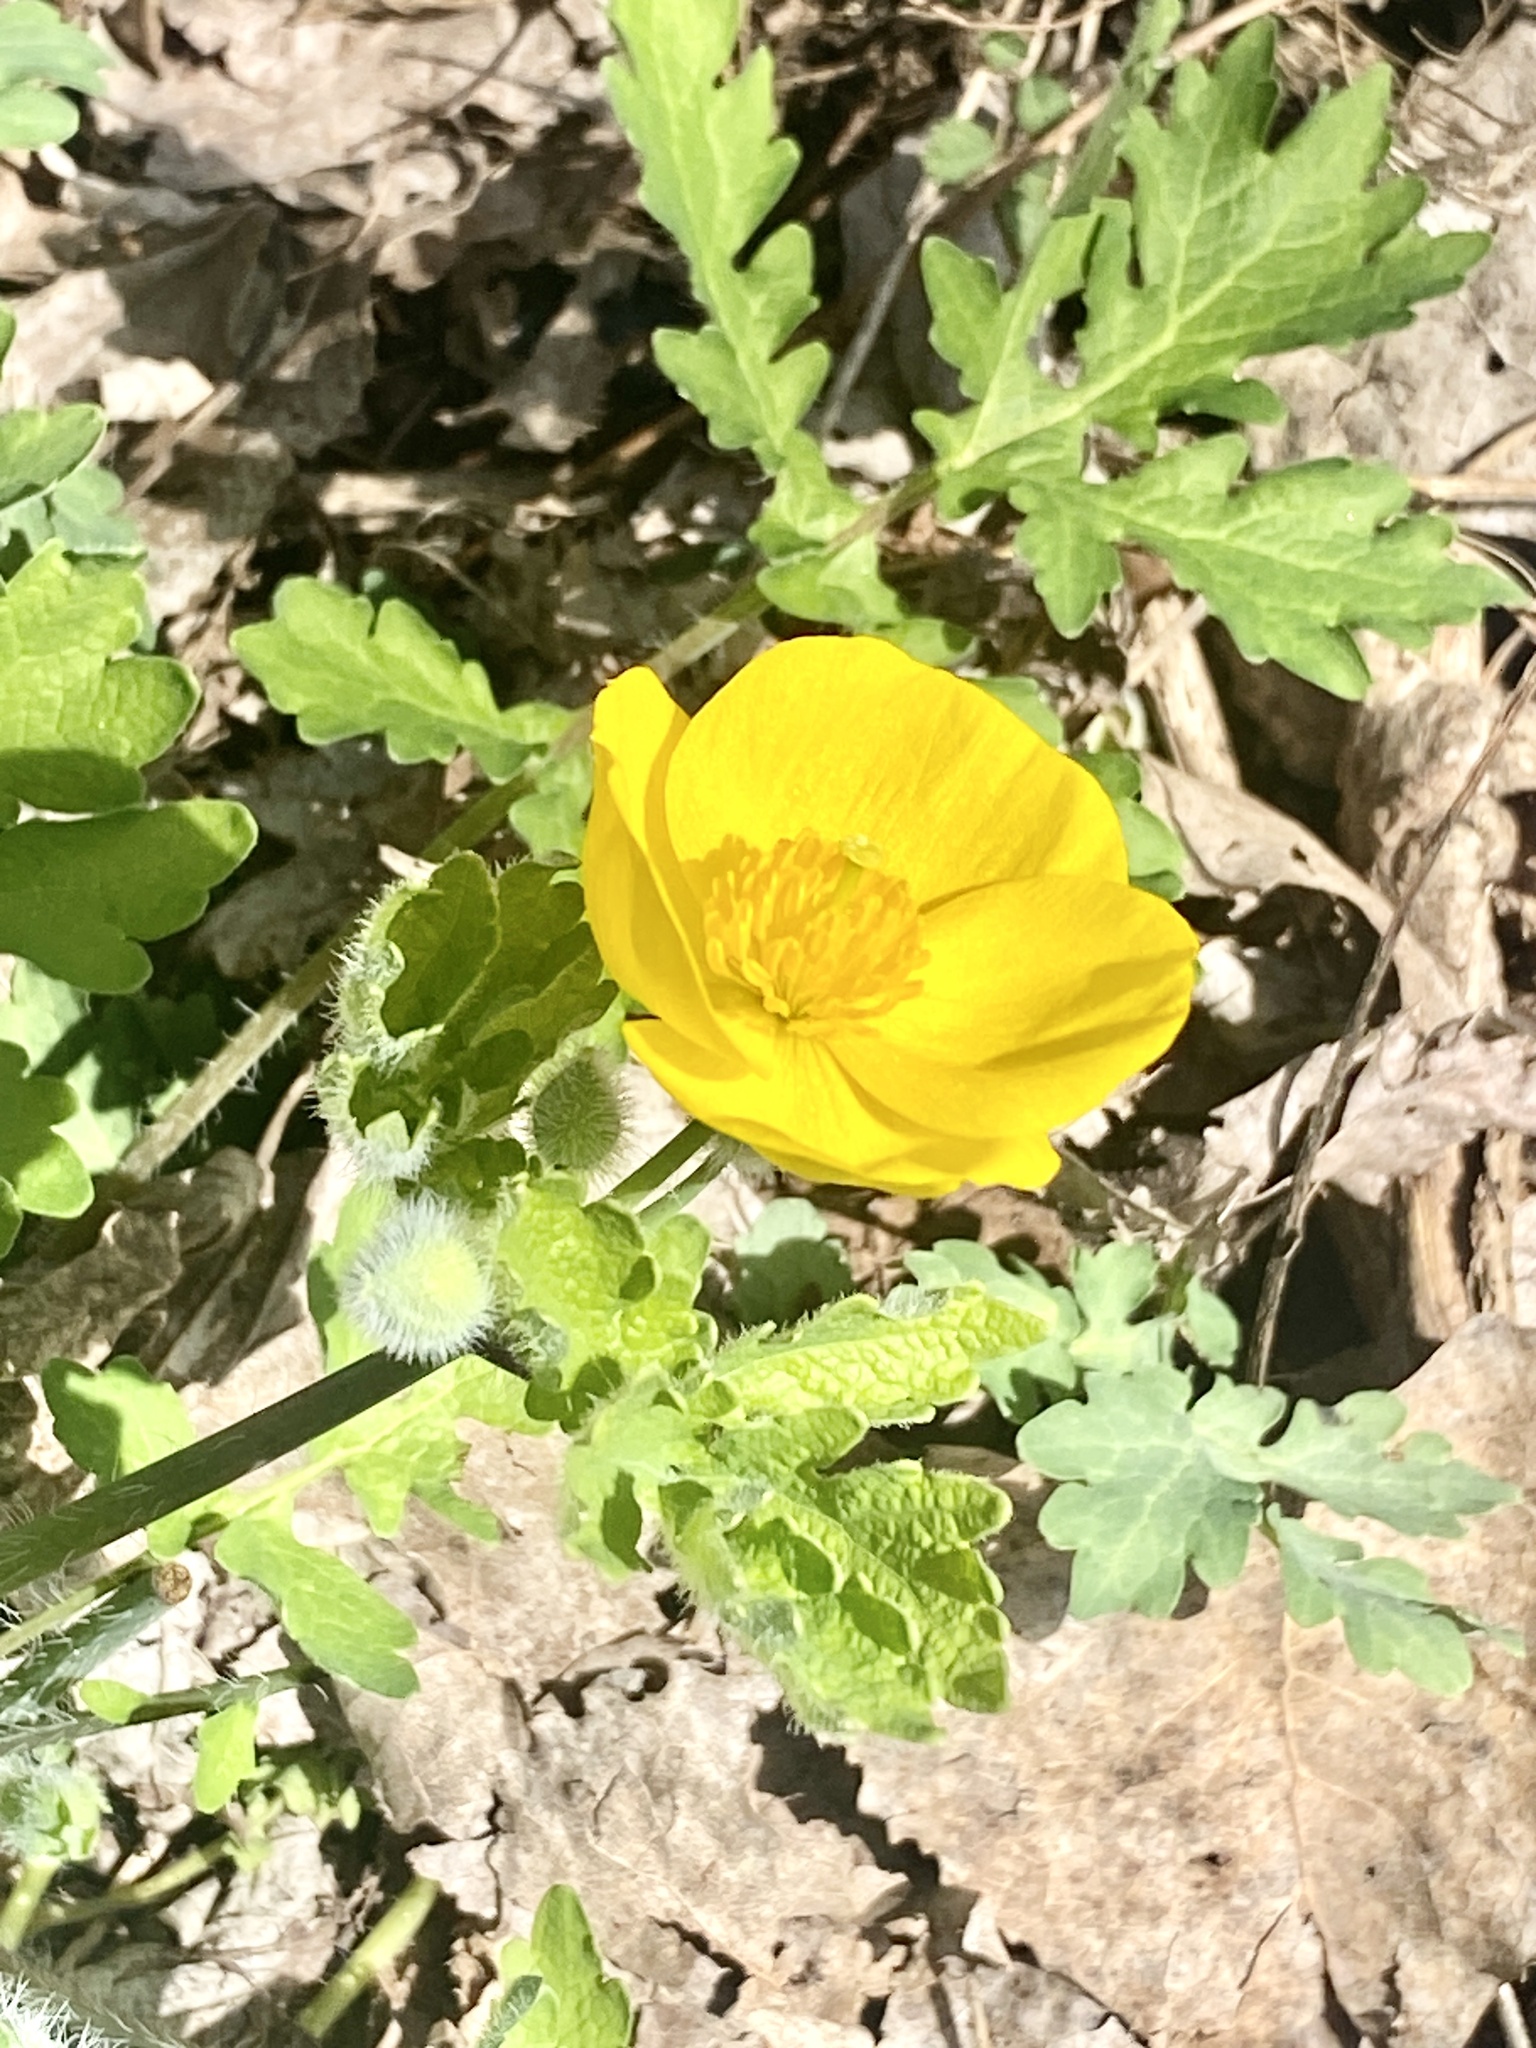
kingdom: Plantae
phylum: Tracheophyta
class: Magnoliopsida
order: Ranunculales
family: Papaveraceae
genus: Stylophorum
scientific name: Stylophorum diphyllum
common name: Celandine poppy
